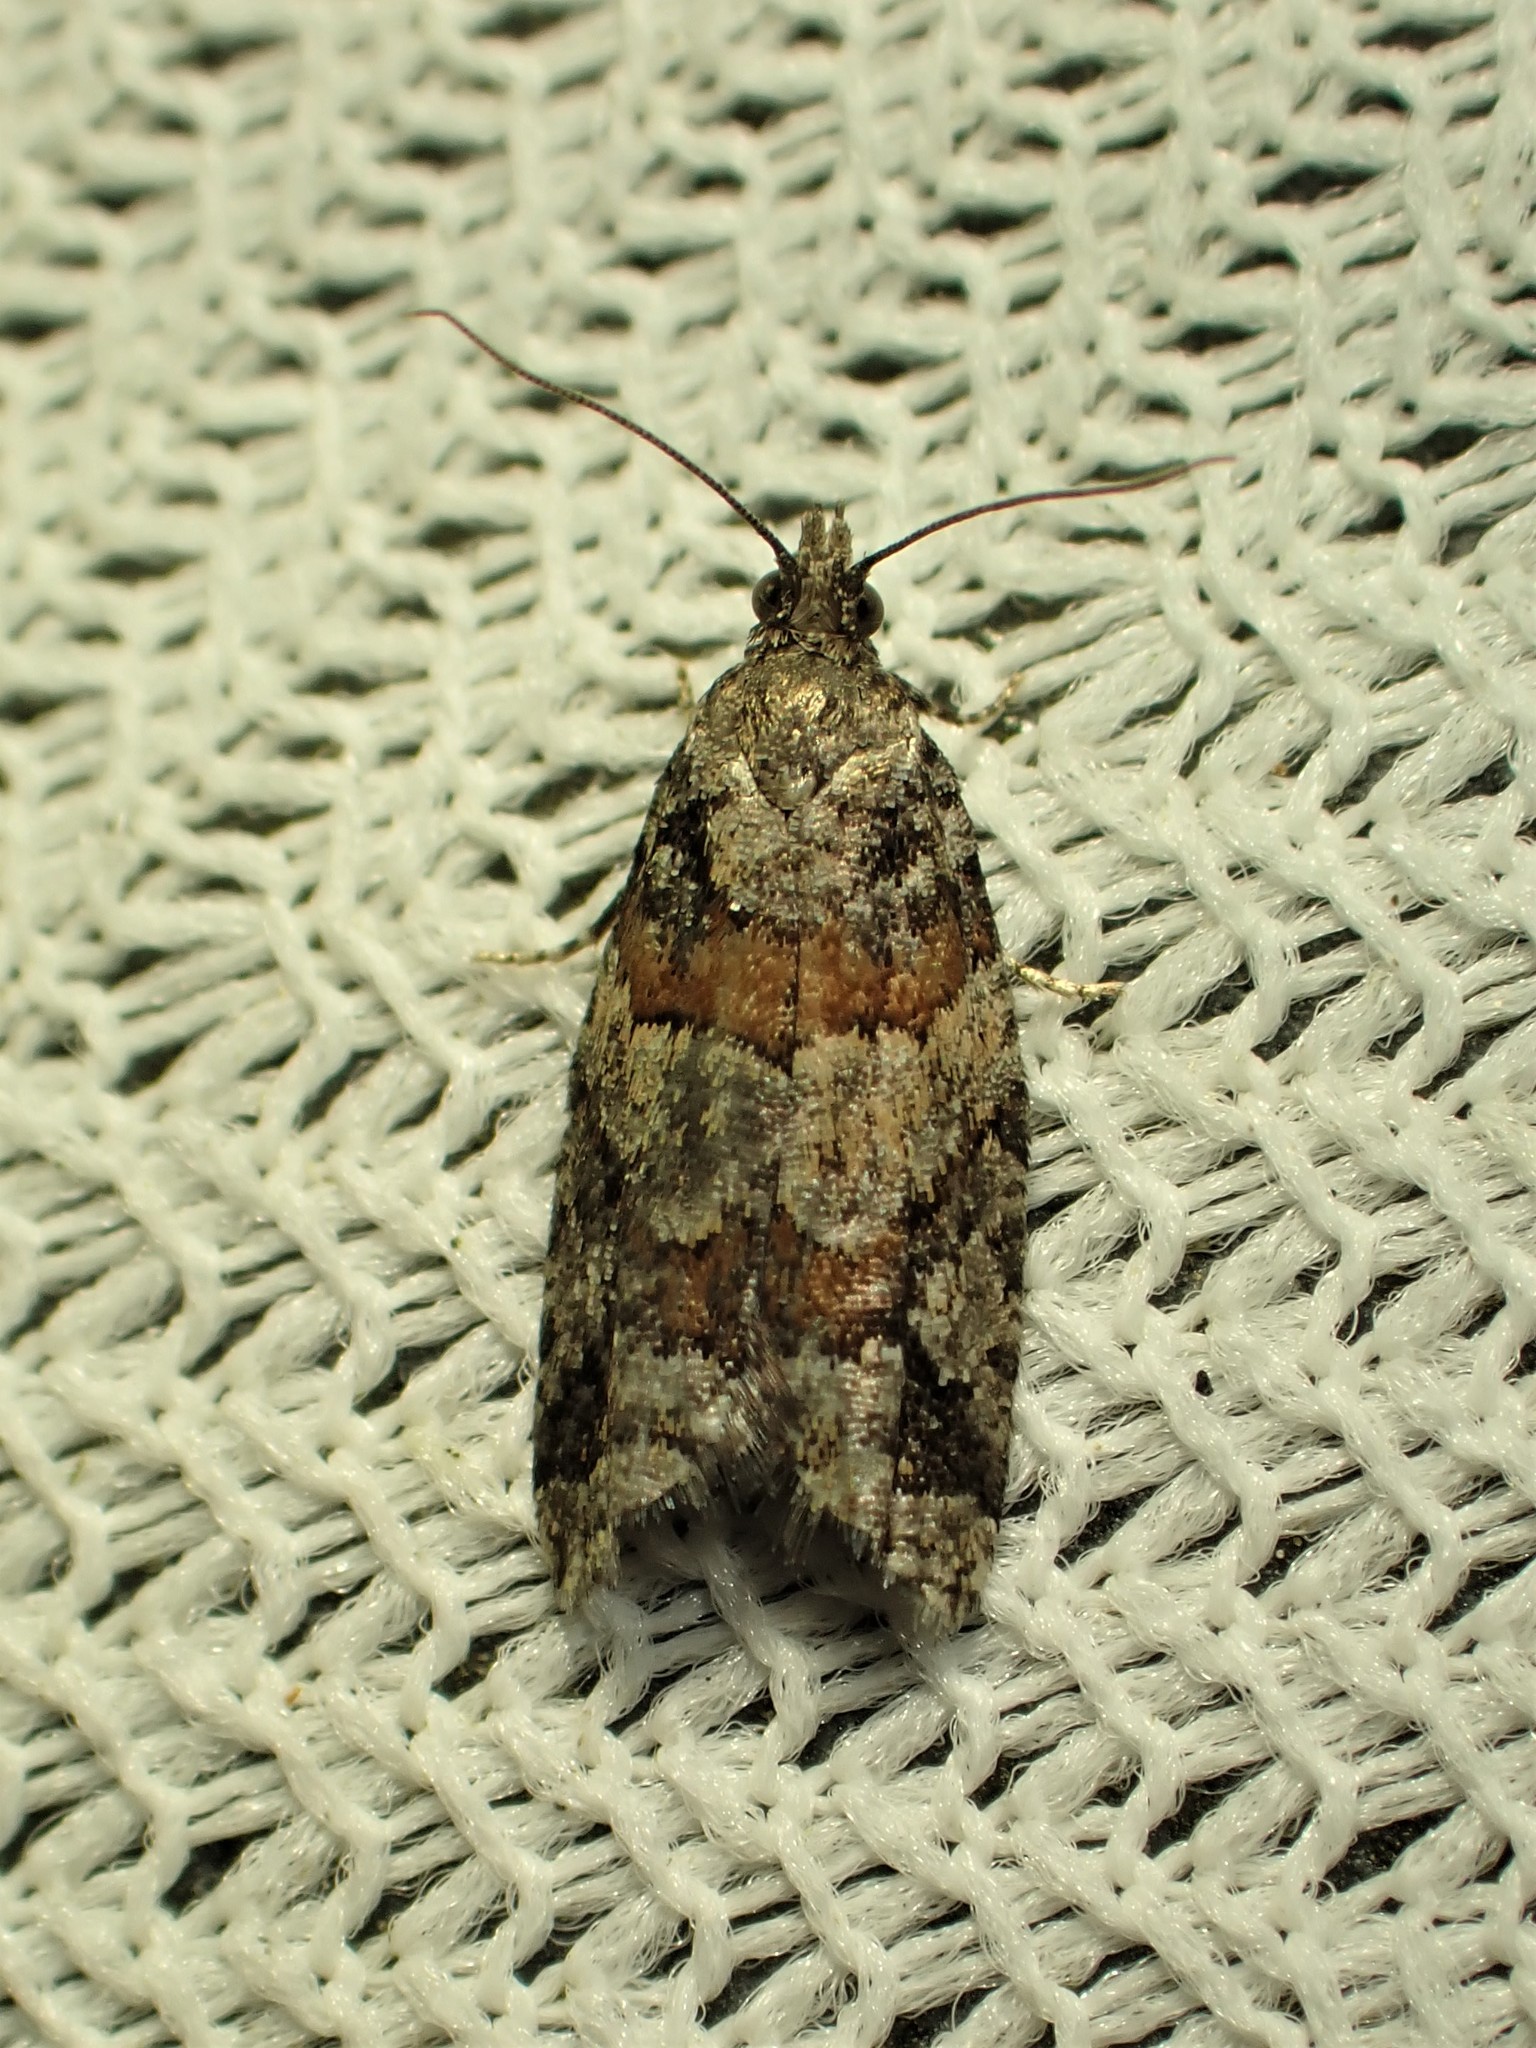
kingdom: Animalia
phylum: Arthropoda
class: Insecta
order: Lepidoptera
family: Tortricidae
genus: Epinotia
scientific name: Epinotia radicana
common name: Red-striped needleworm moth
